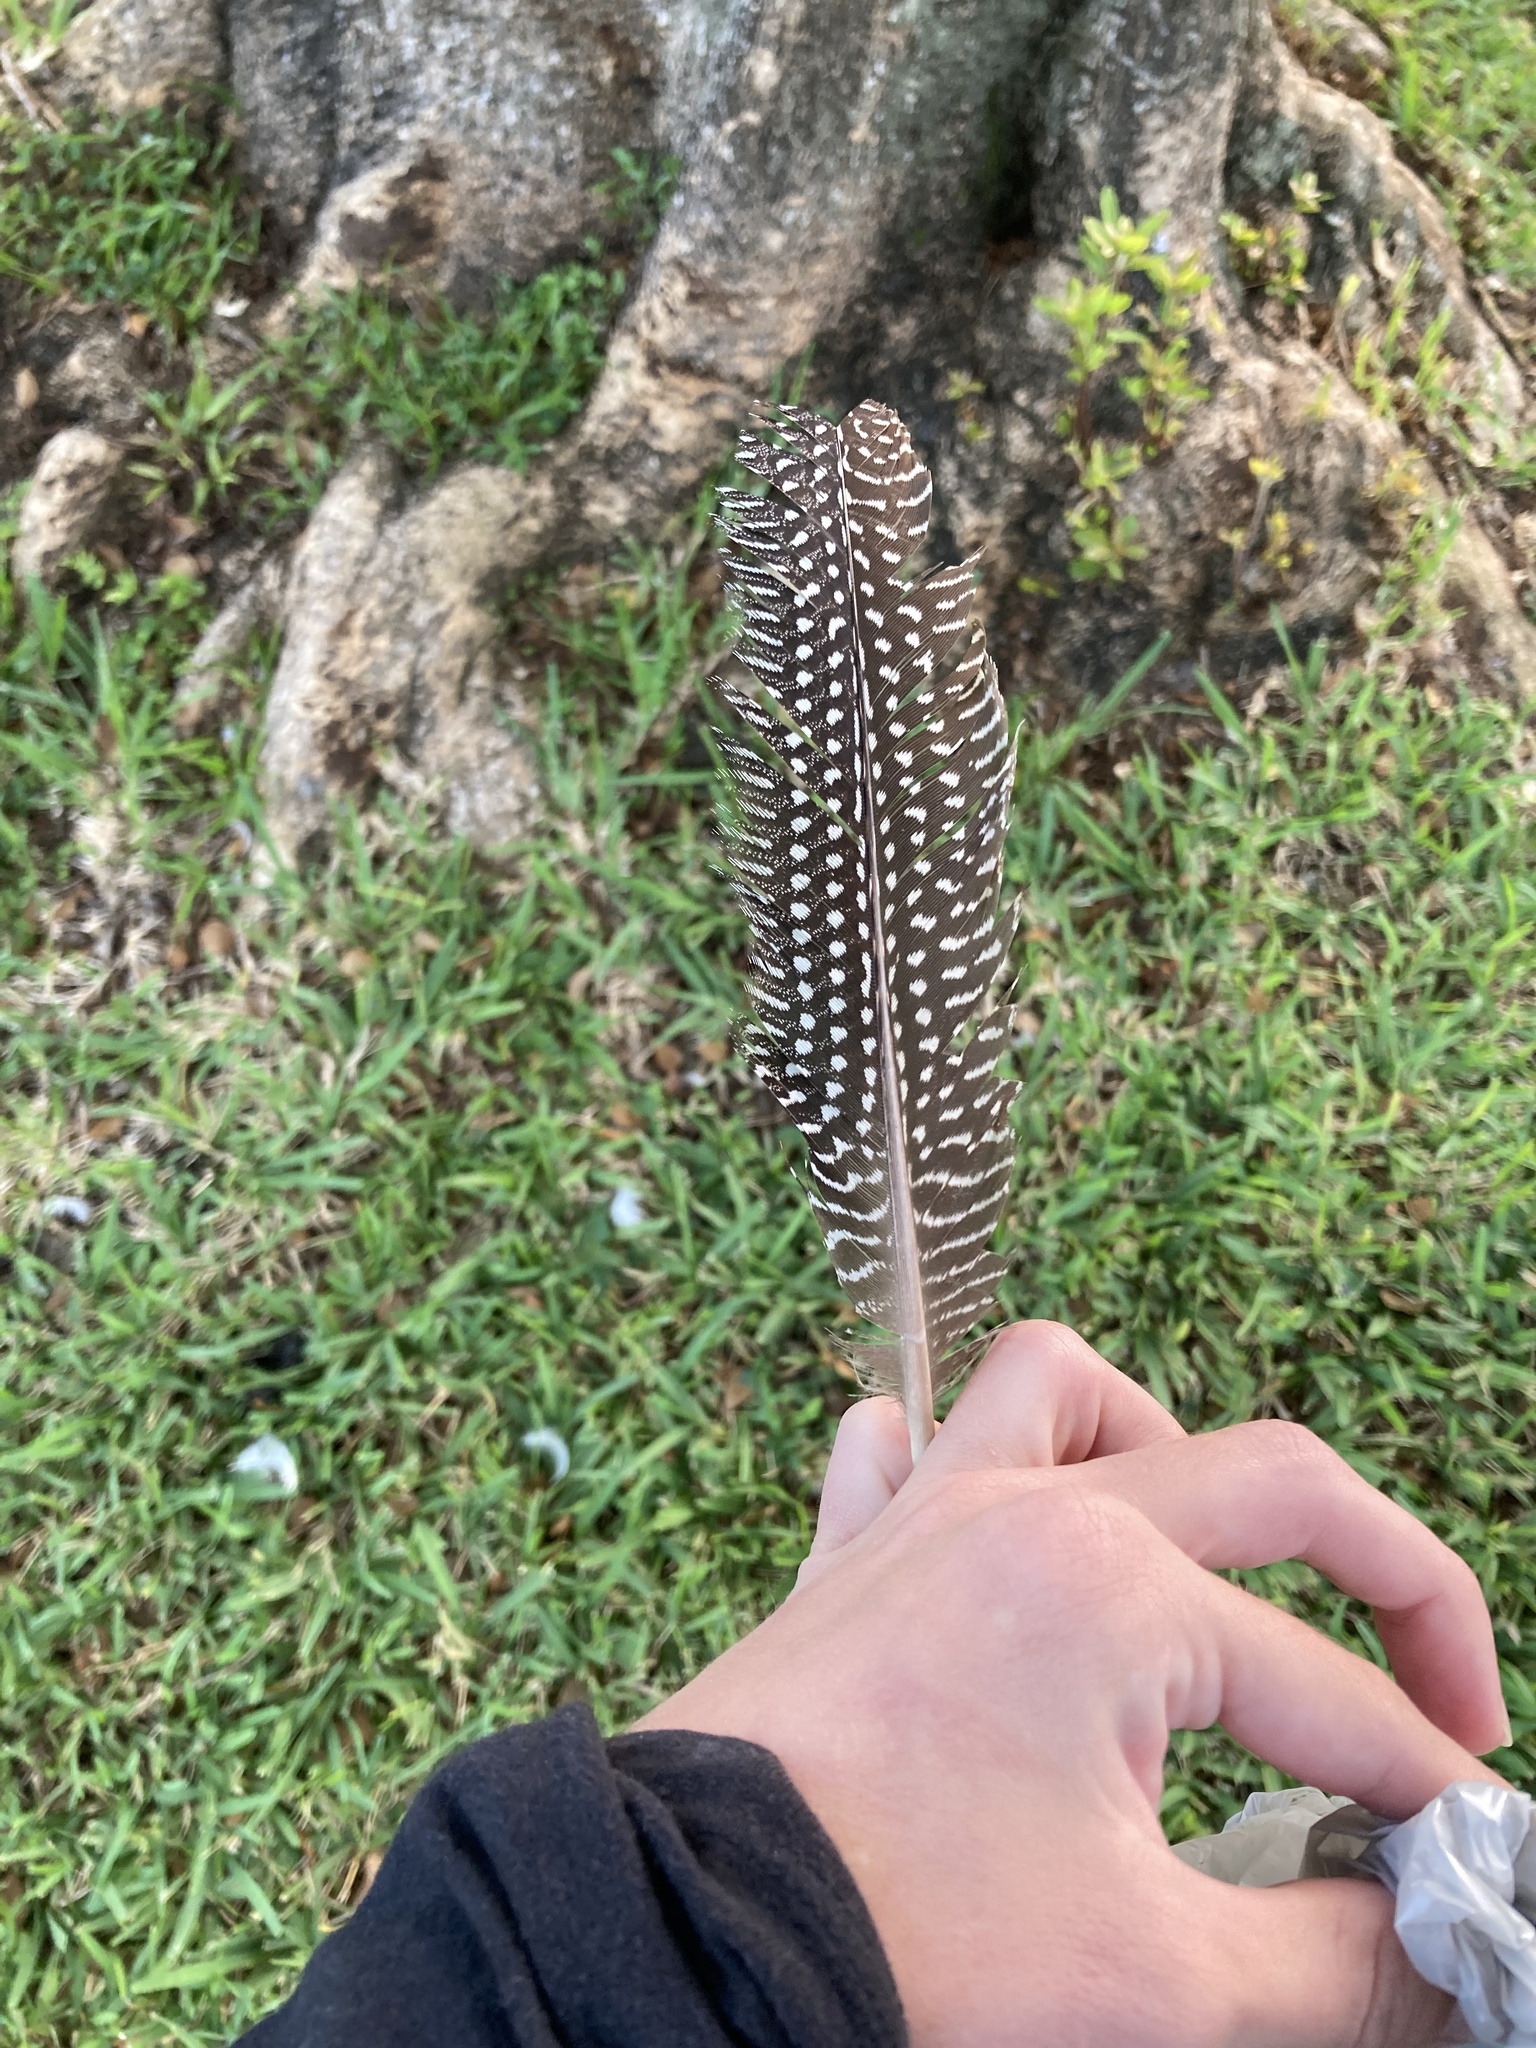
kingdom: Animalia
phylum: Chordata
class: Aves
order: Galliformes
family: Numididae
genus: Numida
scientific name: Numida meleagris
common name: Helmeted guineafowl
